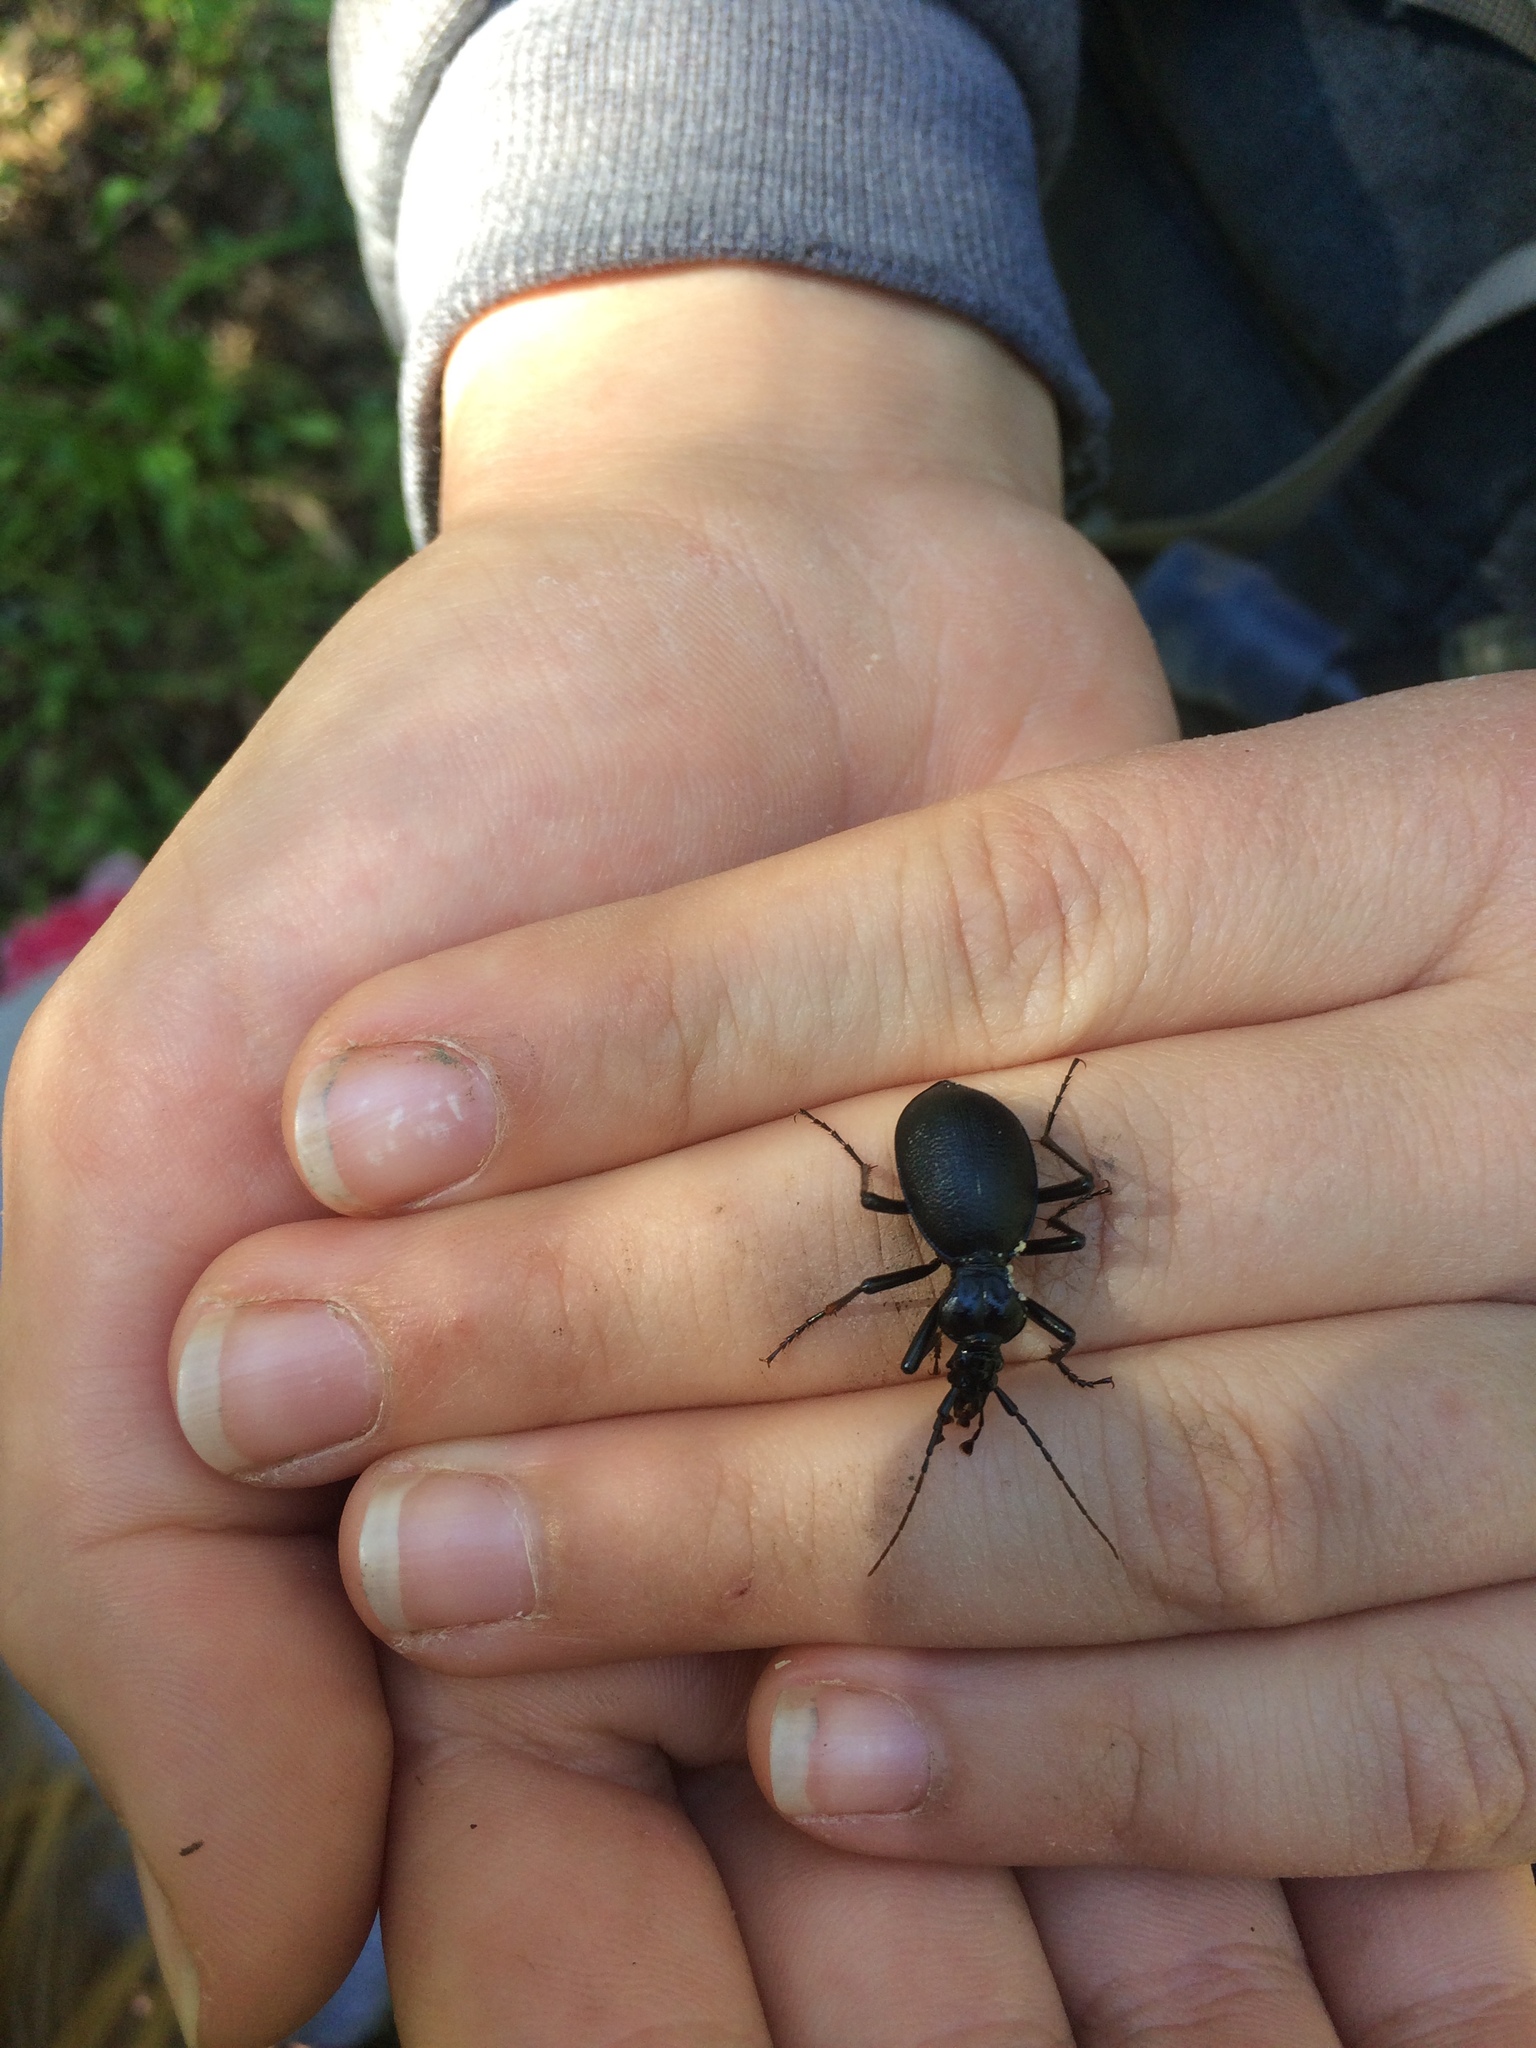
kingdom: Animalia
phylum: Arthropoda
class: Insecta
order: Coleoptera
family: Carabidae
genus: Scaphinotus
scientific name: Scaphinotus
